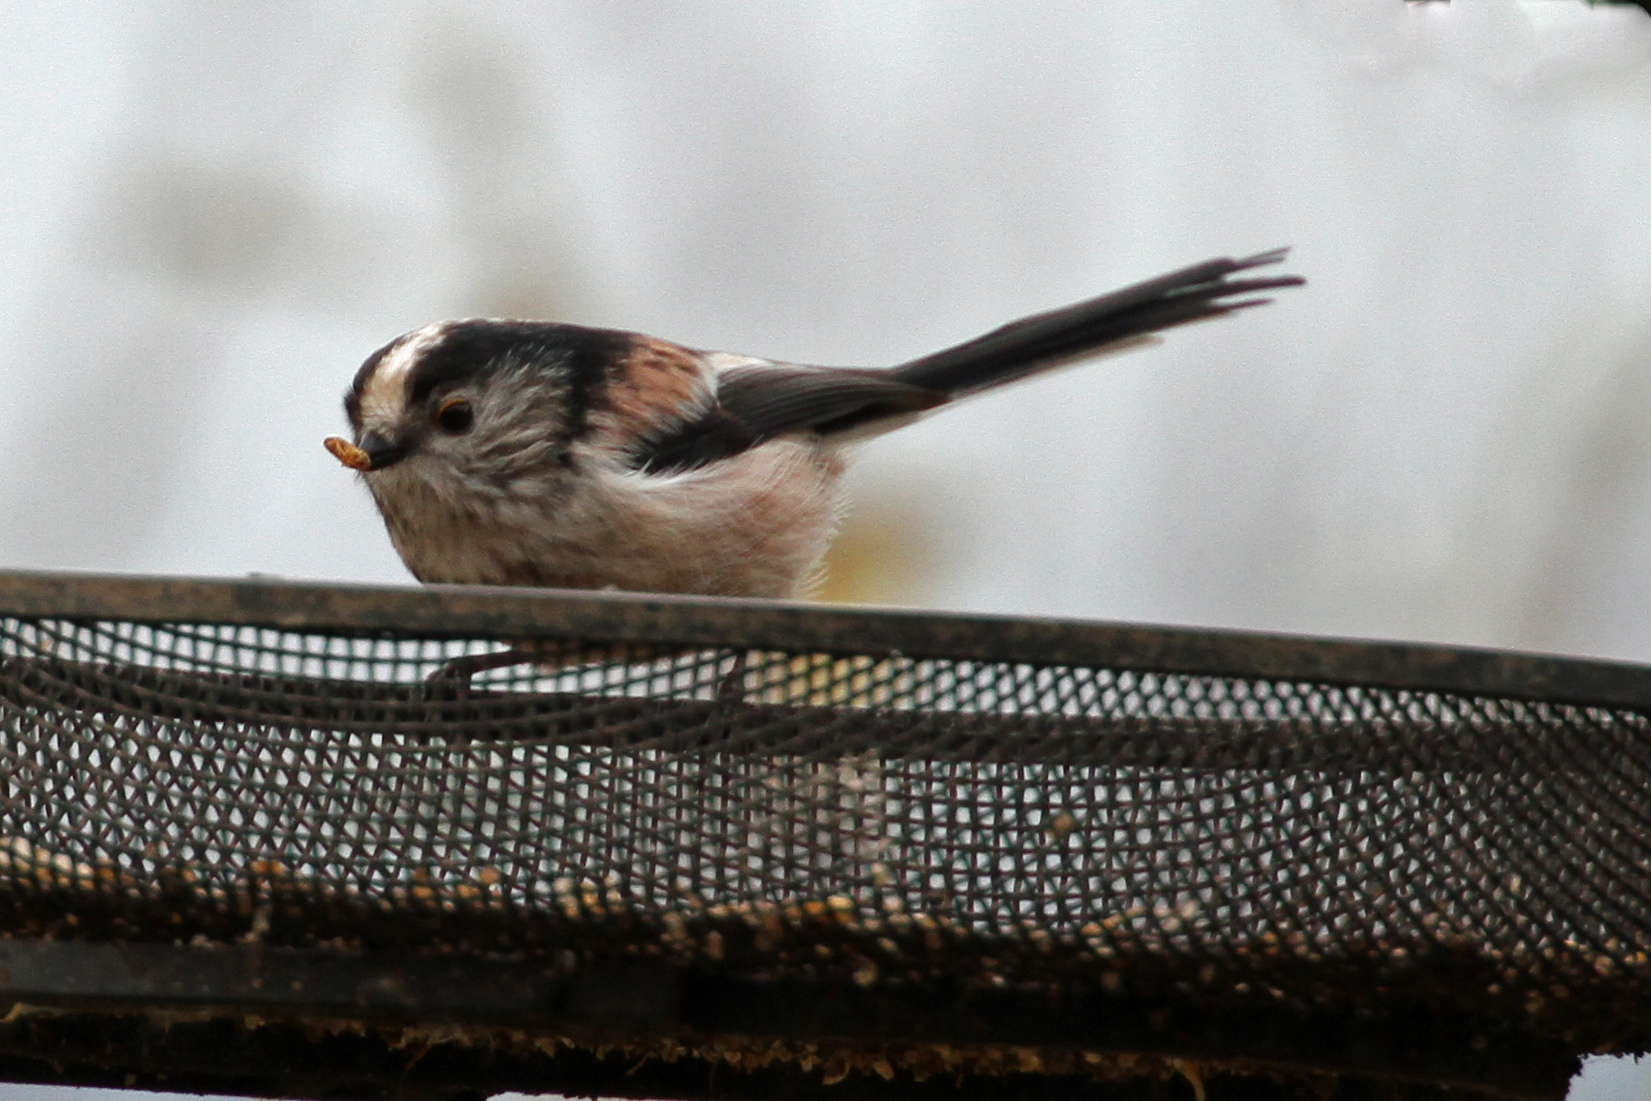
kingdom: Animalia
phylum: Chordata
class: Aves
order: Passeriformes
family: Aegithalidae
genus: Aegithalos
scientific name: Aegithalos caudatus
